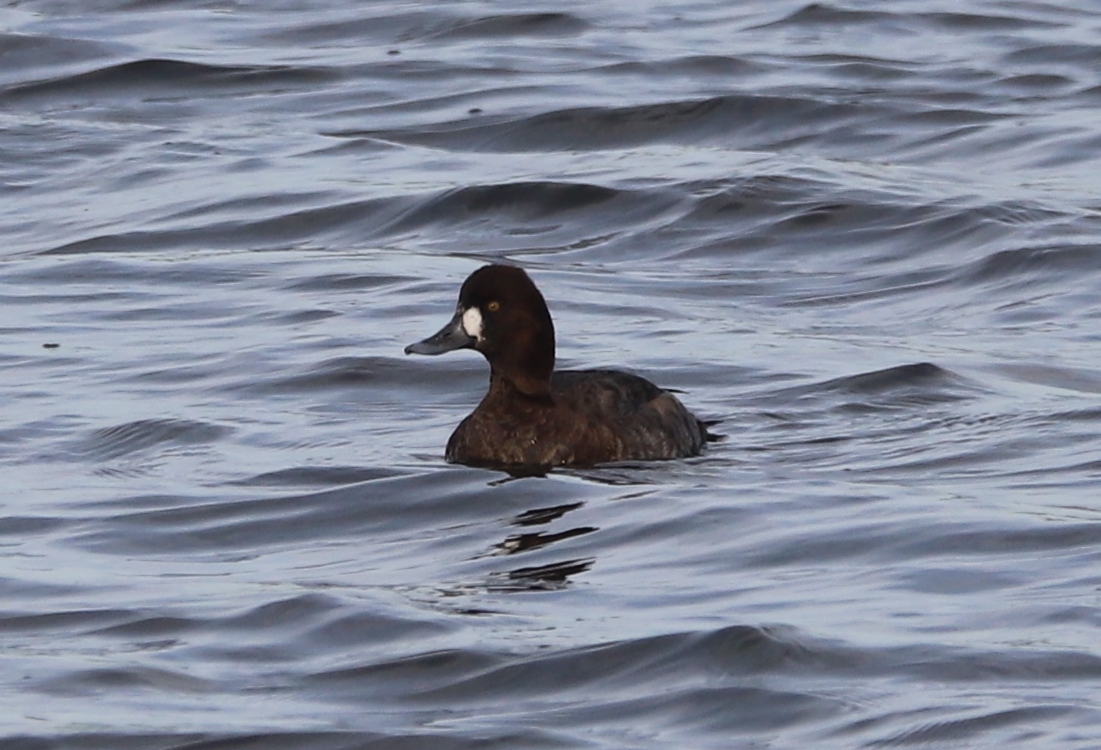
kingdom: Animalia
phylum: Chordata
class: Aves
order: Anseriformes
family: Anatidae
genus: Aythya
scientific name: Aythya affinis
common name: Lesser scaup
